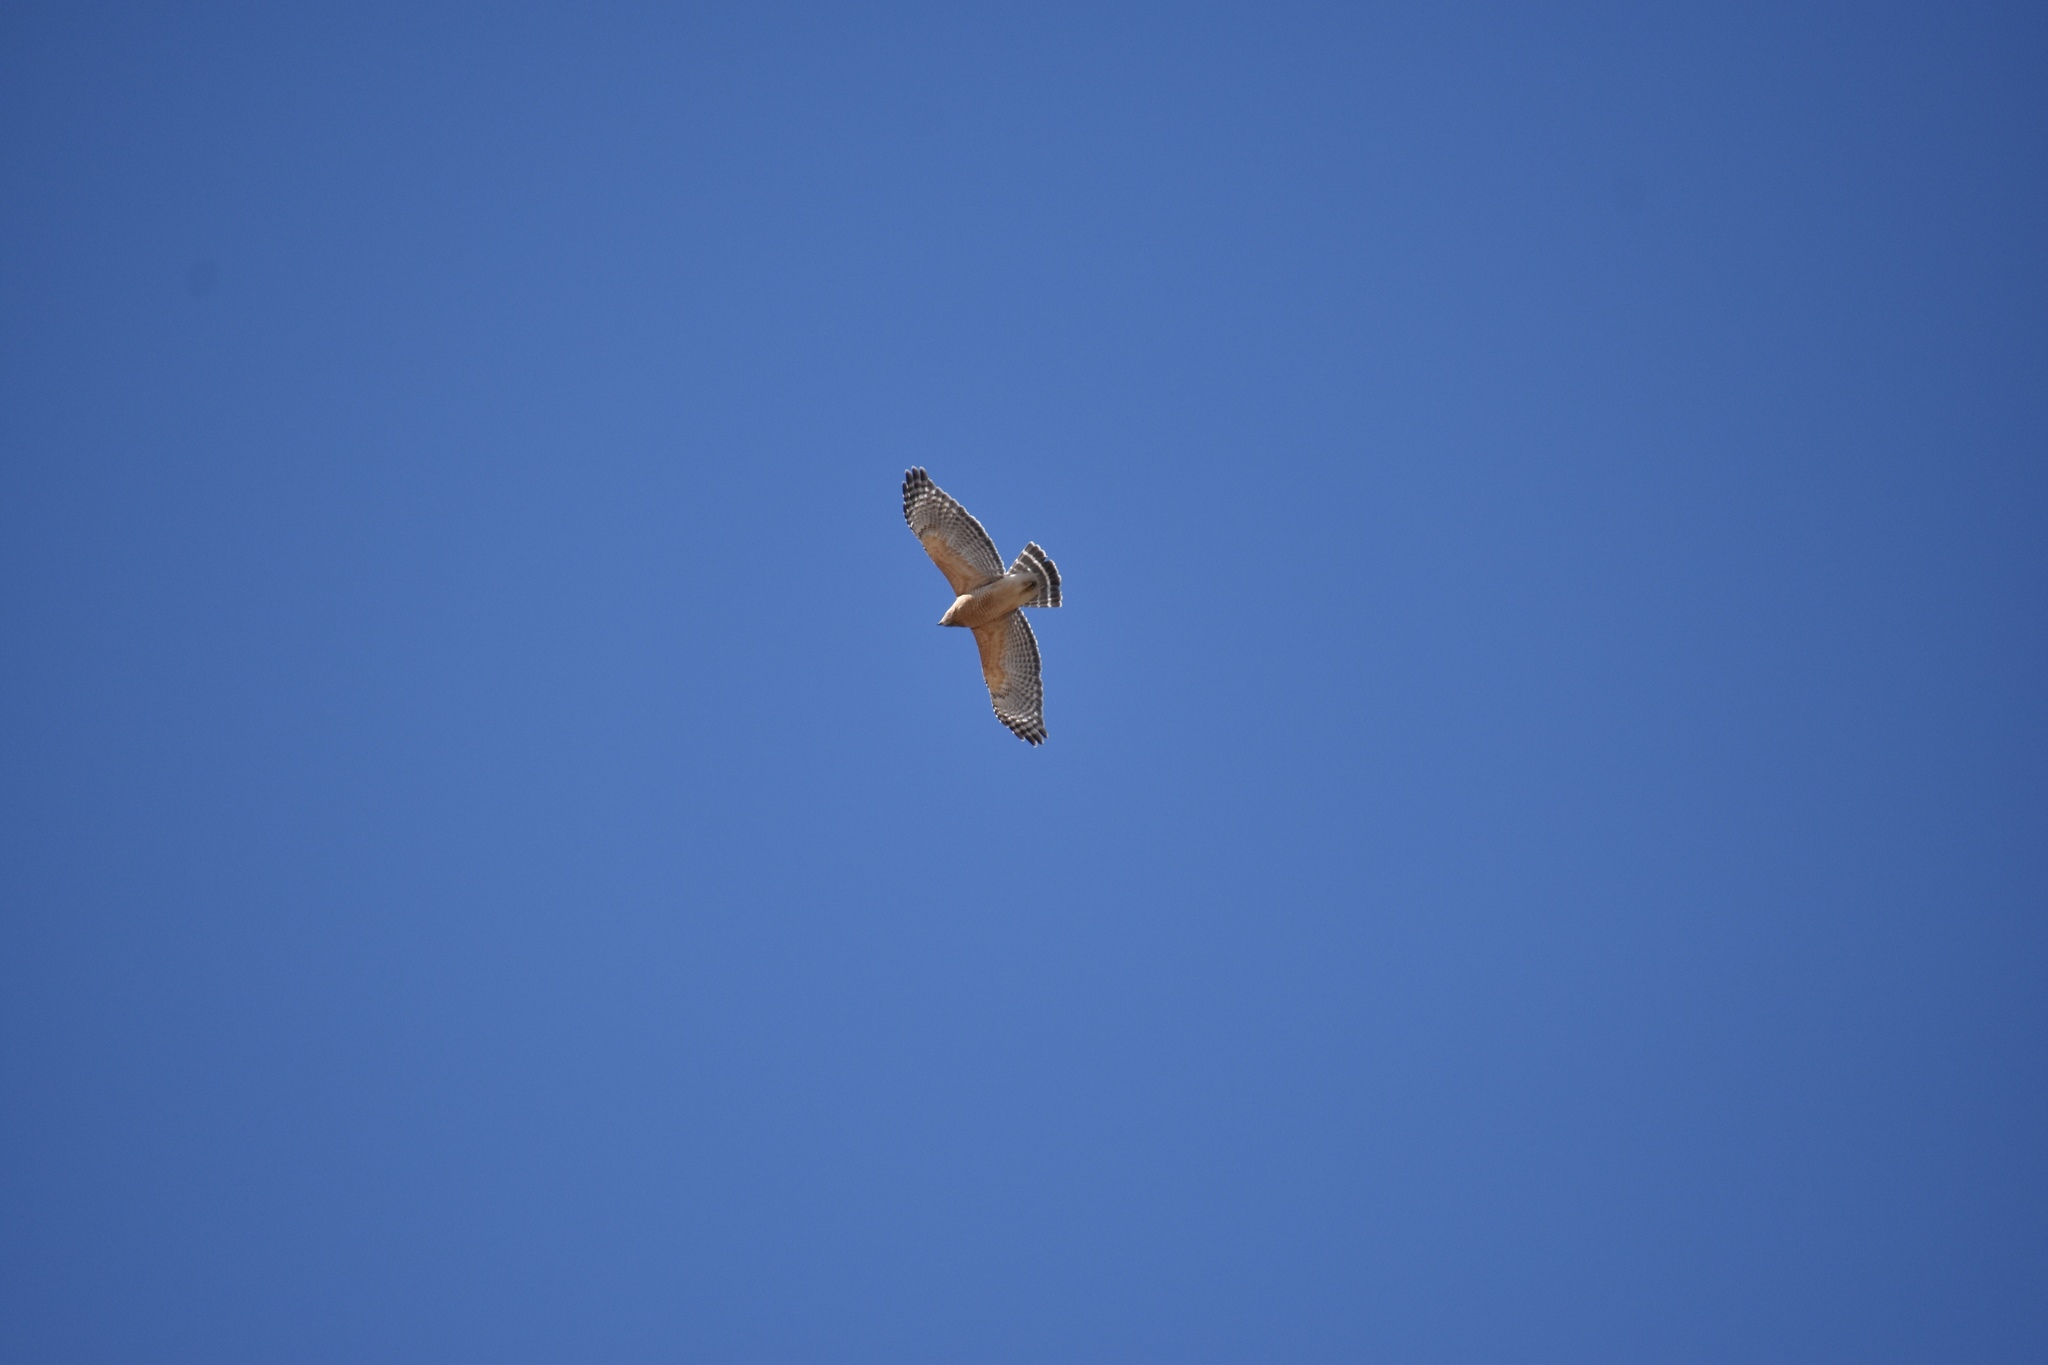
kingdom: Animalia
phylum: Chordata
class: Aves
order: Accipitriformes
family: Accipitridae
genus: Buteo
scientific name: Buteo lineatus
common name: Red-shouldered hawk
